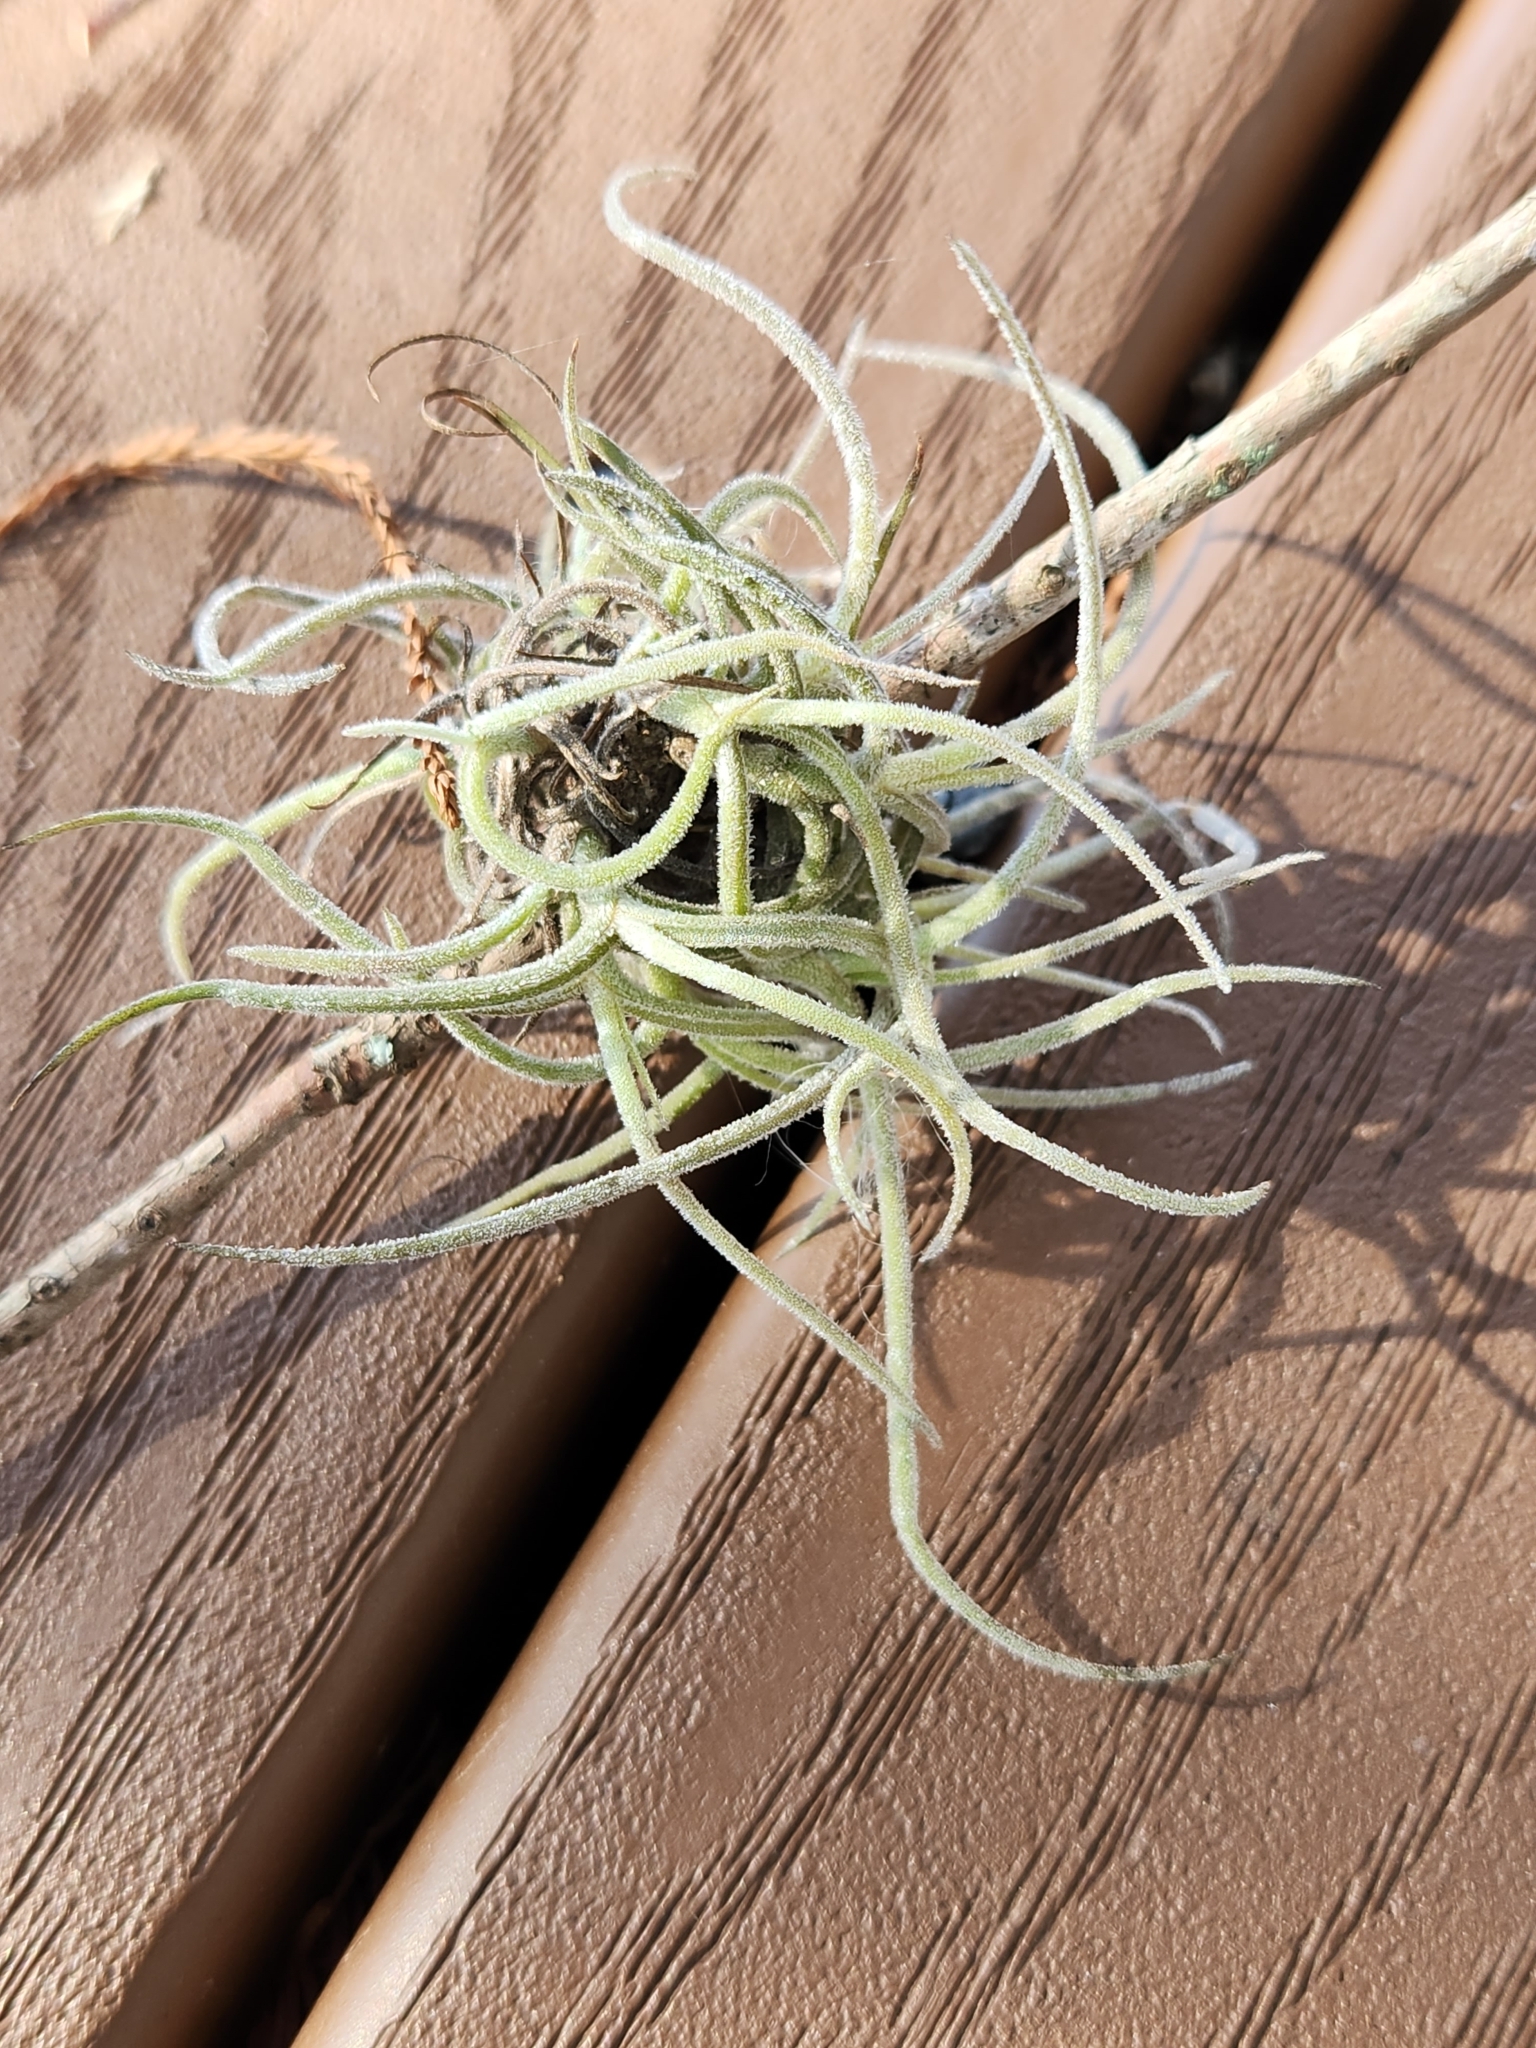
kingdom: Plantae
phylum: Tracheophyta
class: Liliopsida
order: Poales
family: Bromeliaceae
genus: Tillandsia
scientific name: Tillandsia recurvata
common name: Small ballmoss
